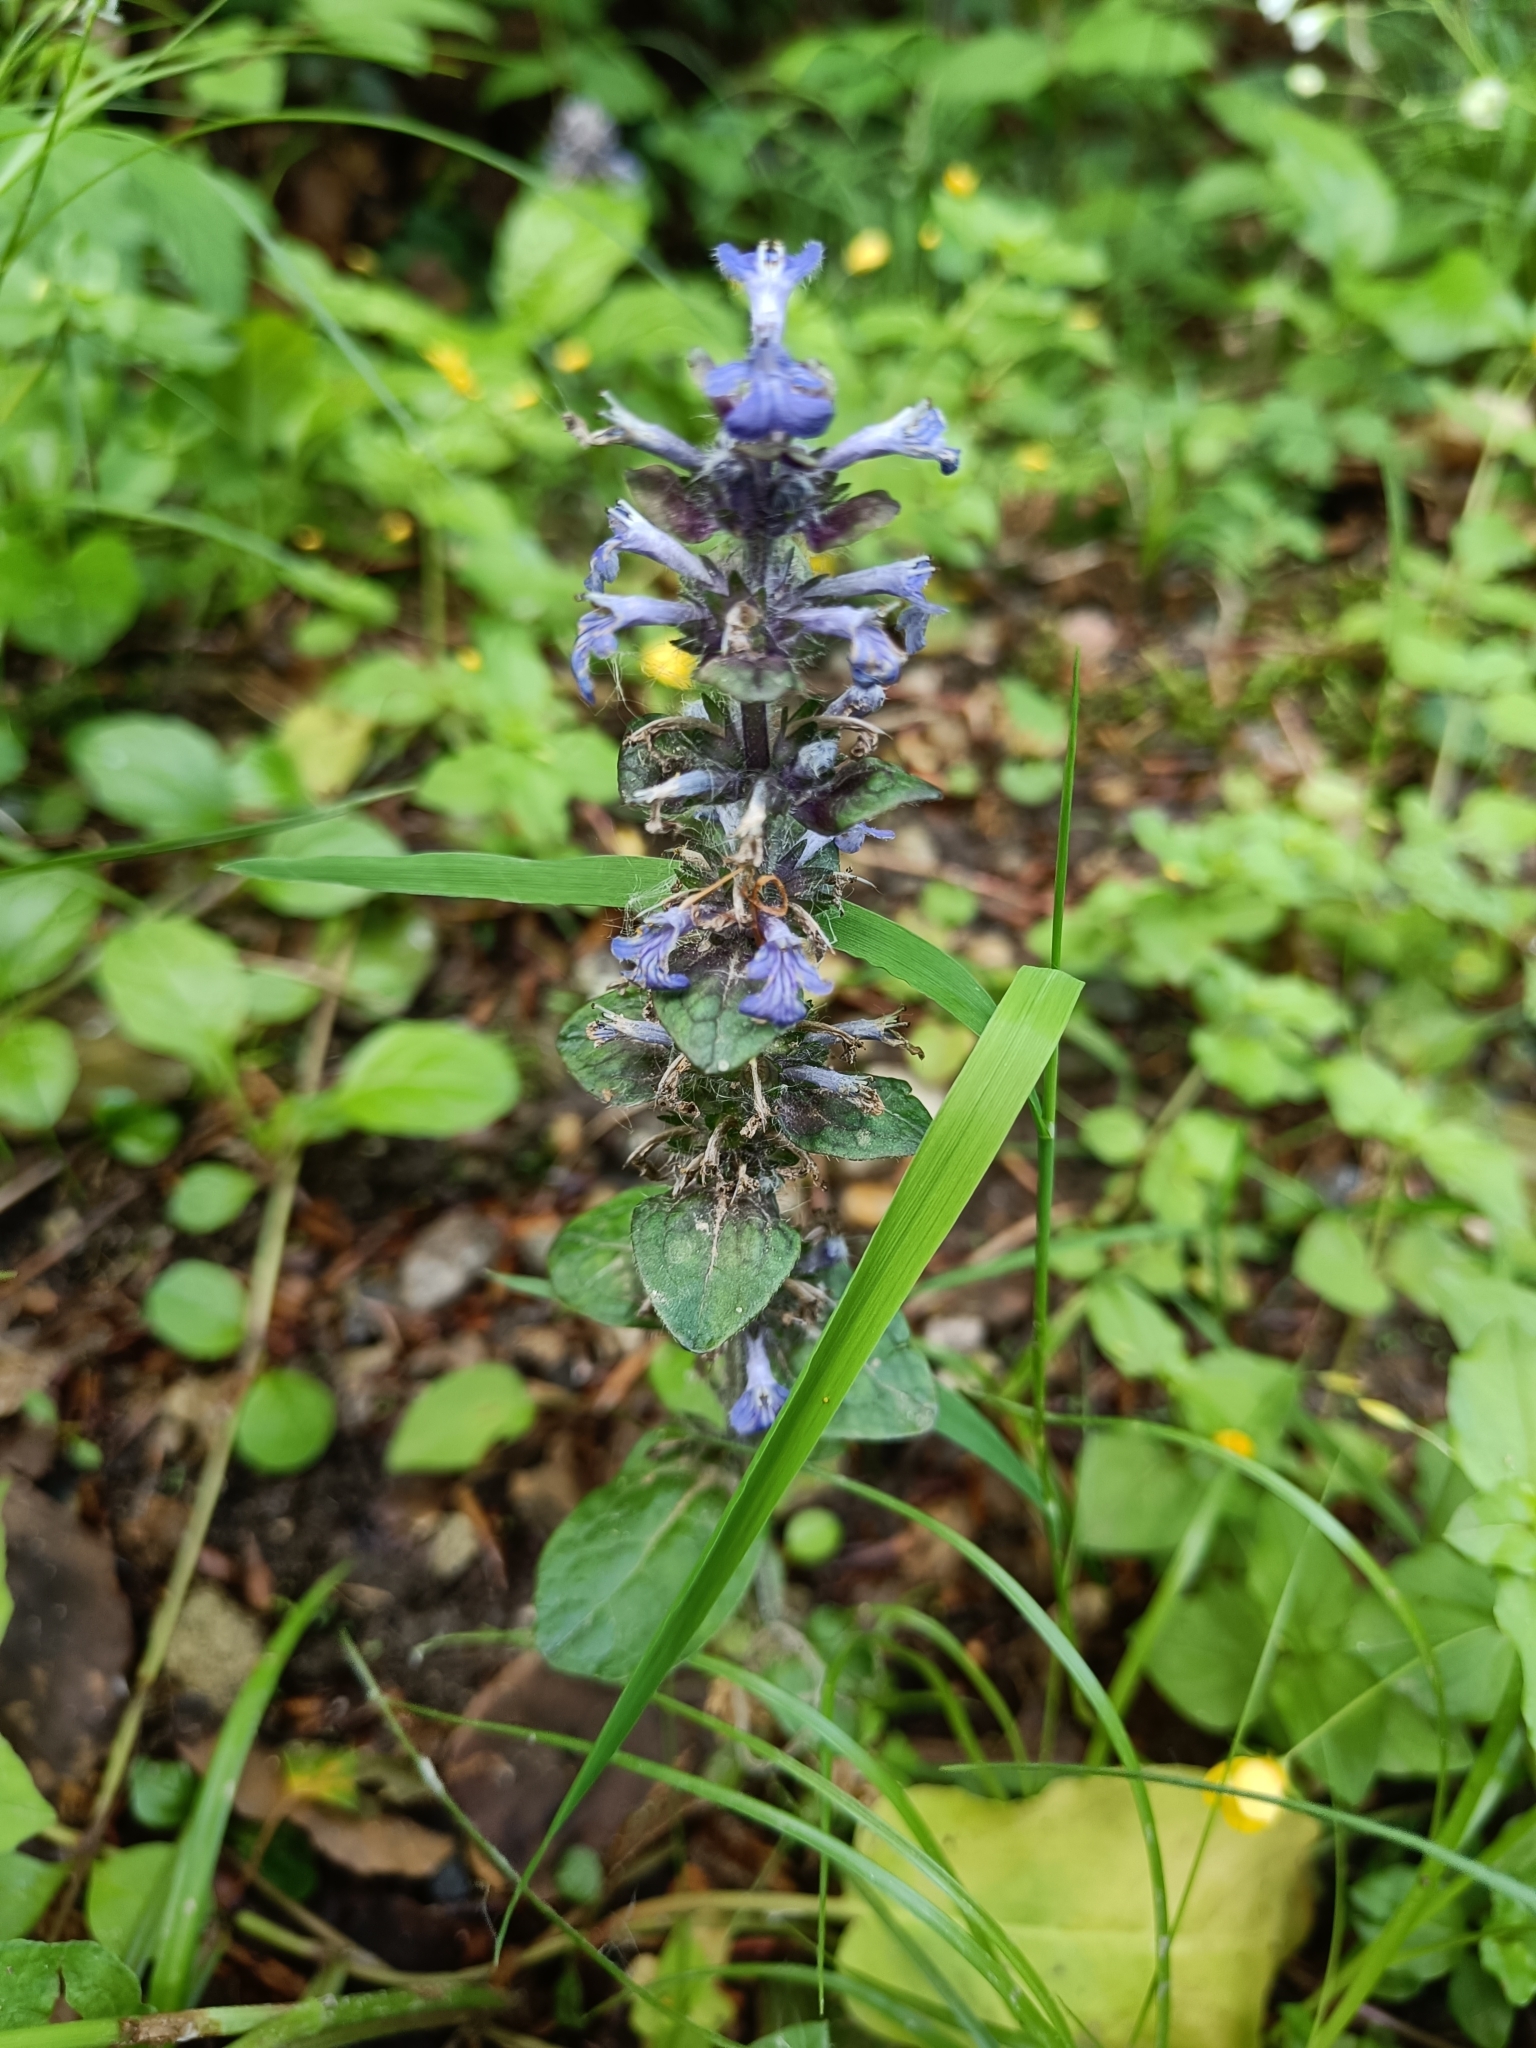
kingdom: Plantae
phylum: Tracheophyta
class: Magnoliopsida
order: Lamiales
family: Lamiaceae
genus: Ajuga
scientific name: Ajuga reptans
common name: Bugle
